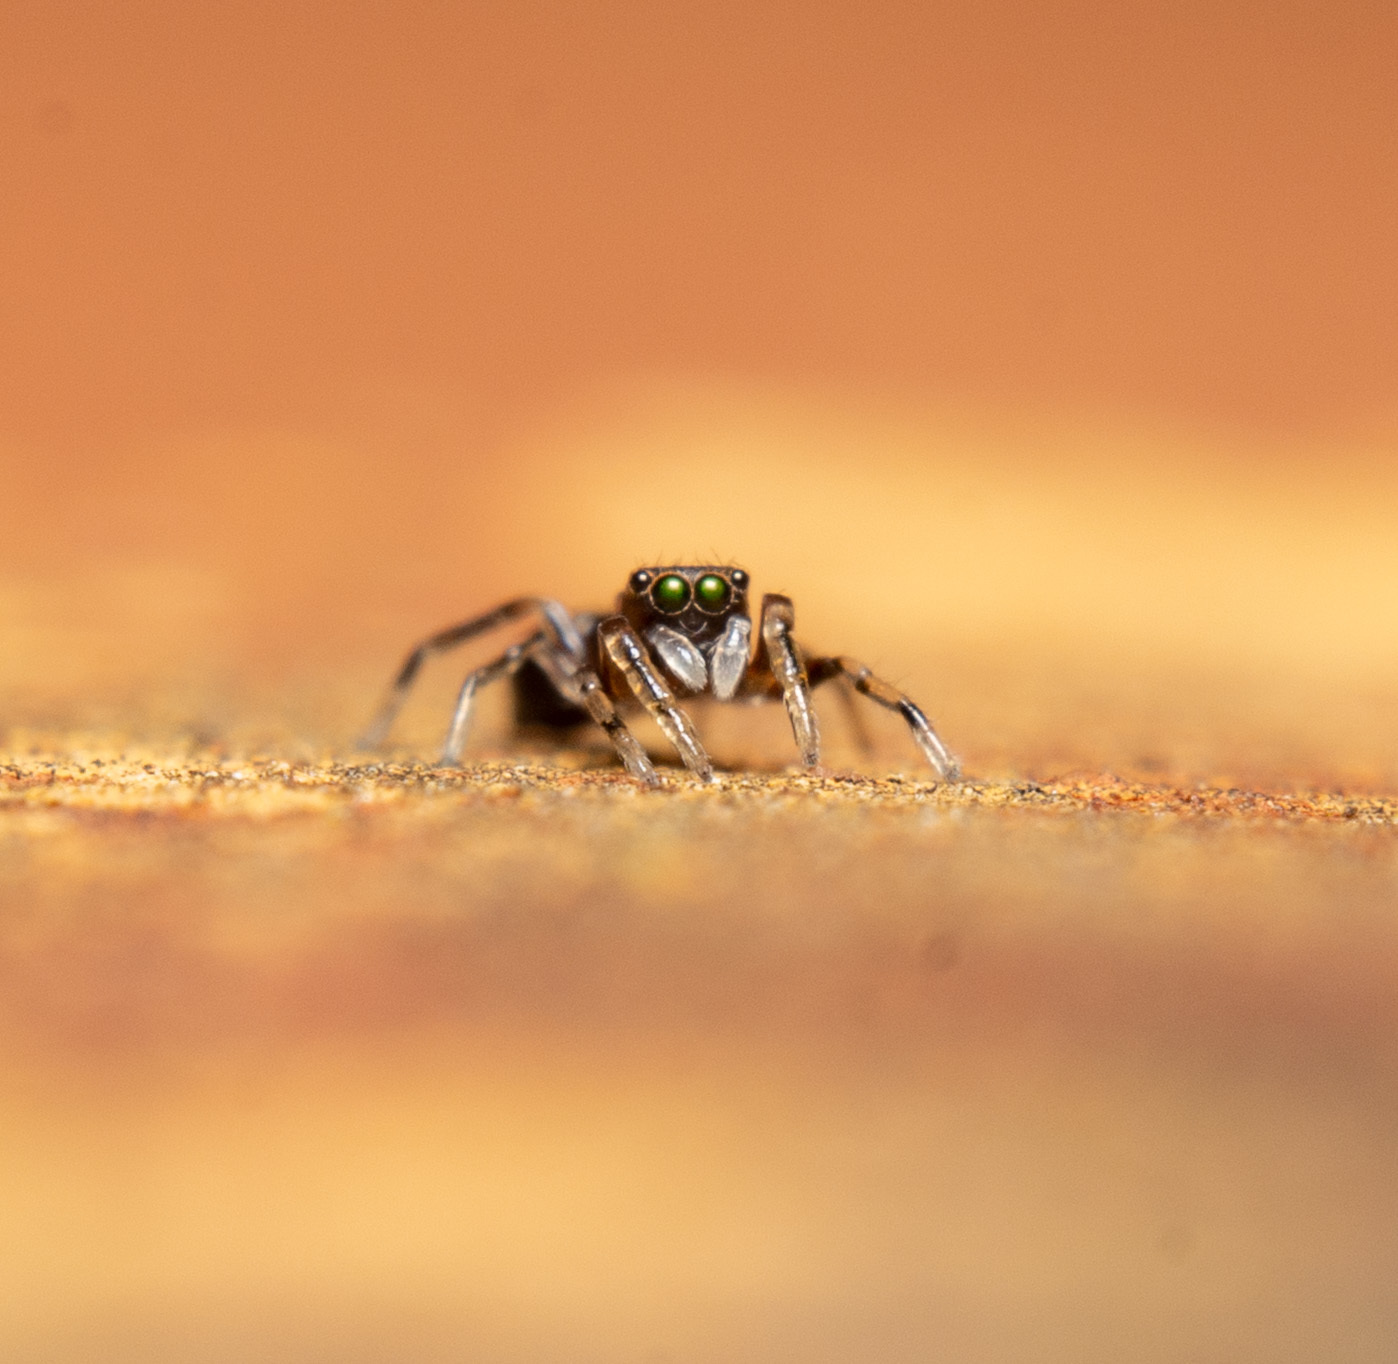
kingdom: Animalia
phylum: Arthropoda
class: Arachnida
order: Araneae
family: Salticidae
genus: Synageles
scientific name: Synageles
